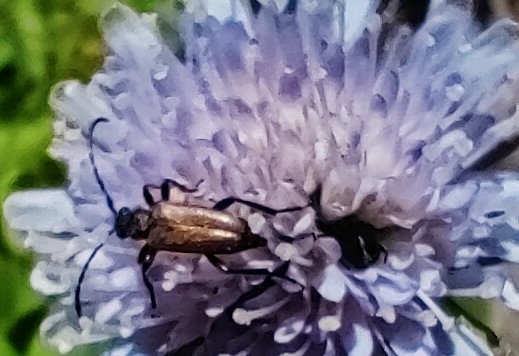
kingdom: Animalia
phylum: Arthropoda
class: Insecta
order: Coleoptera
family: Cerambycidae
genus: Paracorymbia
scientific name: Paracorymbia maculicornis
